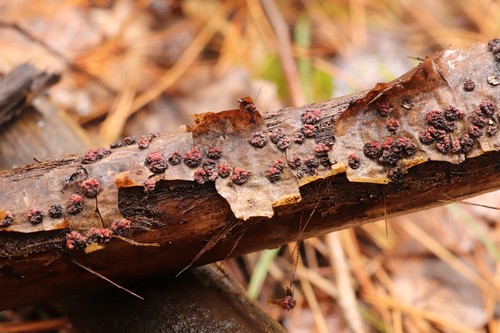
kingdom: Fungi
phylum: Basidiomycota
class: Agaricomycetes
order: Russulales
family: Peniophoraceae
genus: Peniophora
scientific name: Peniophora rufa
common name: Red tree brain fungus
